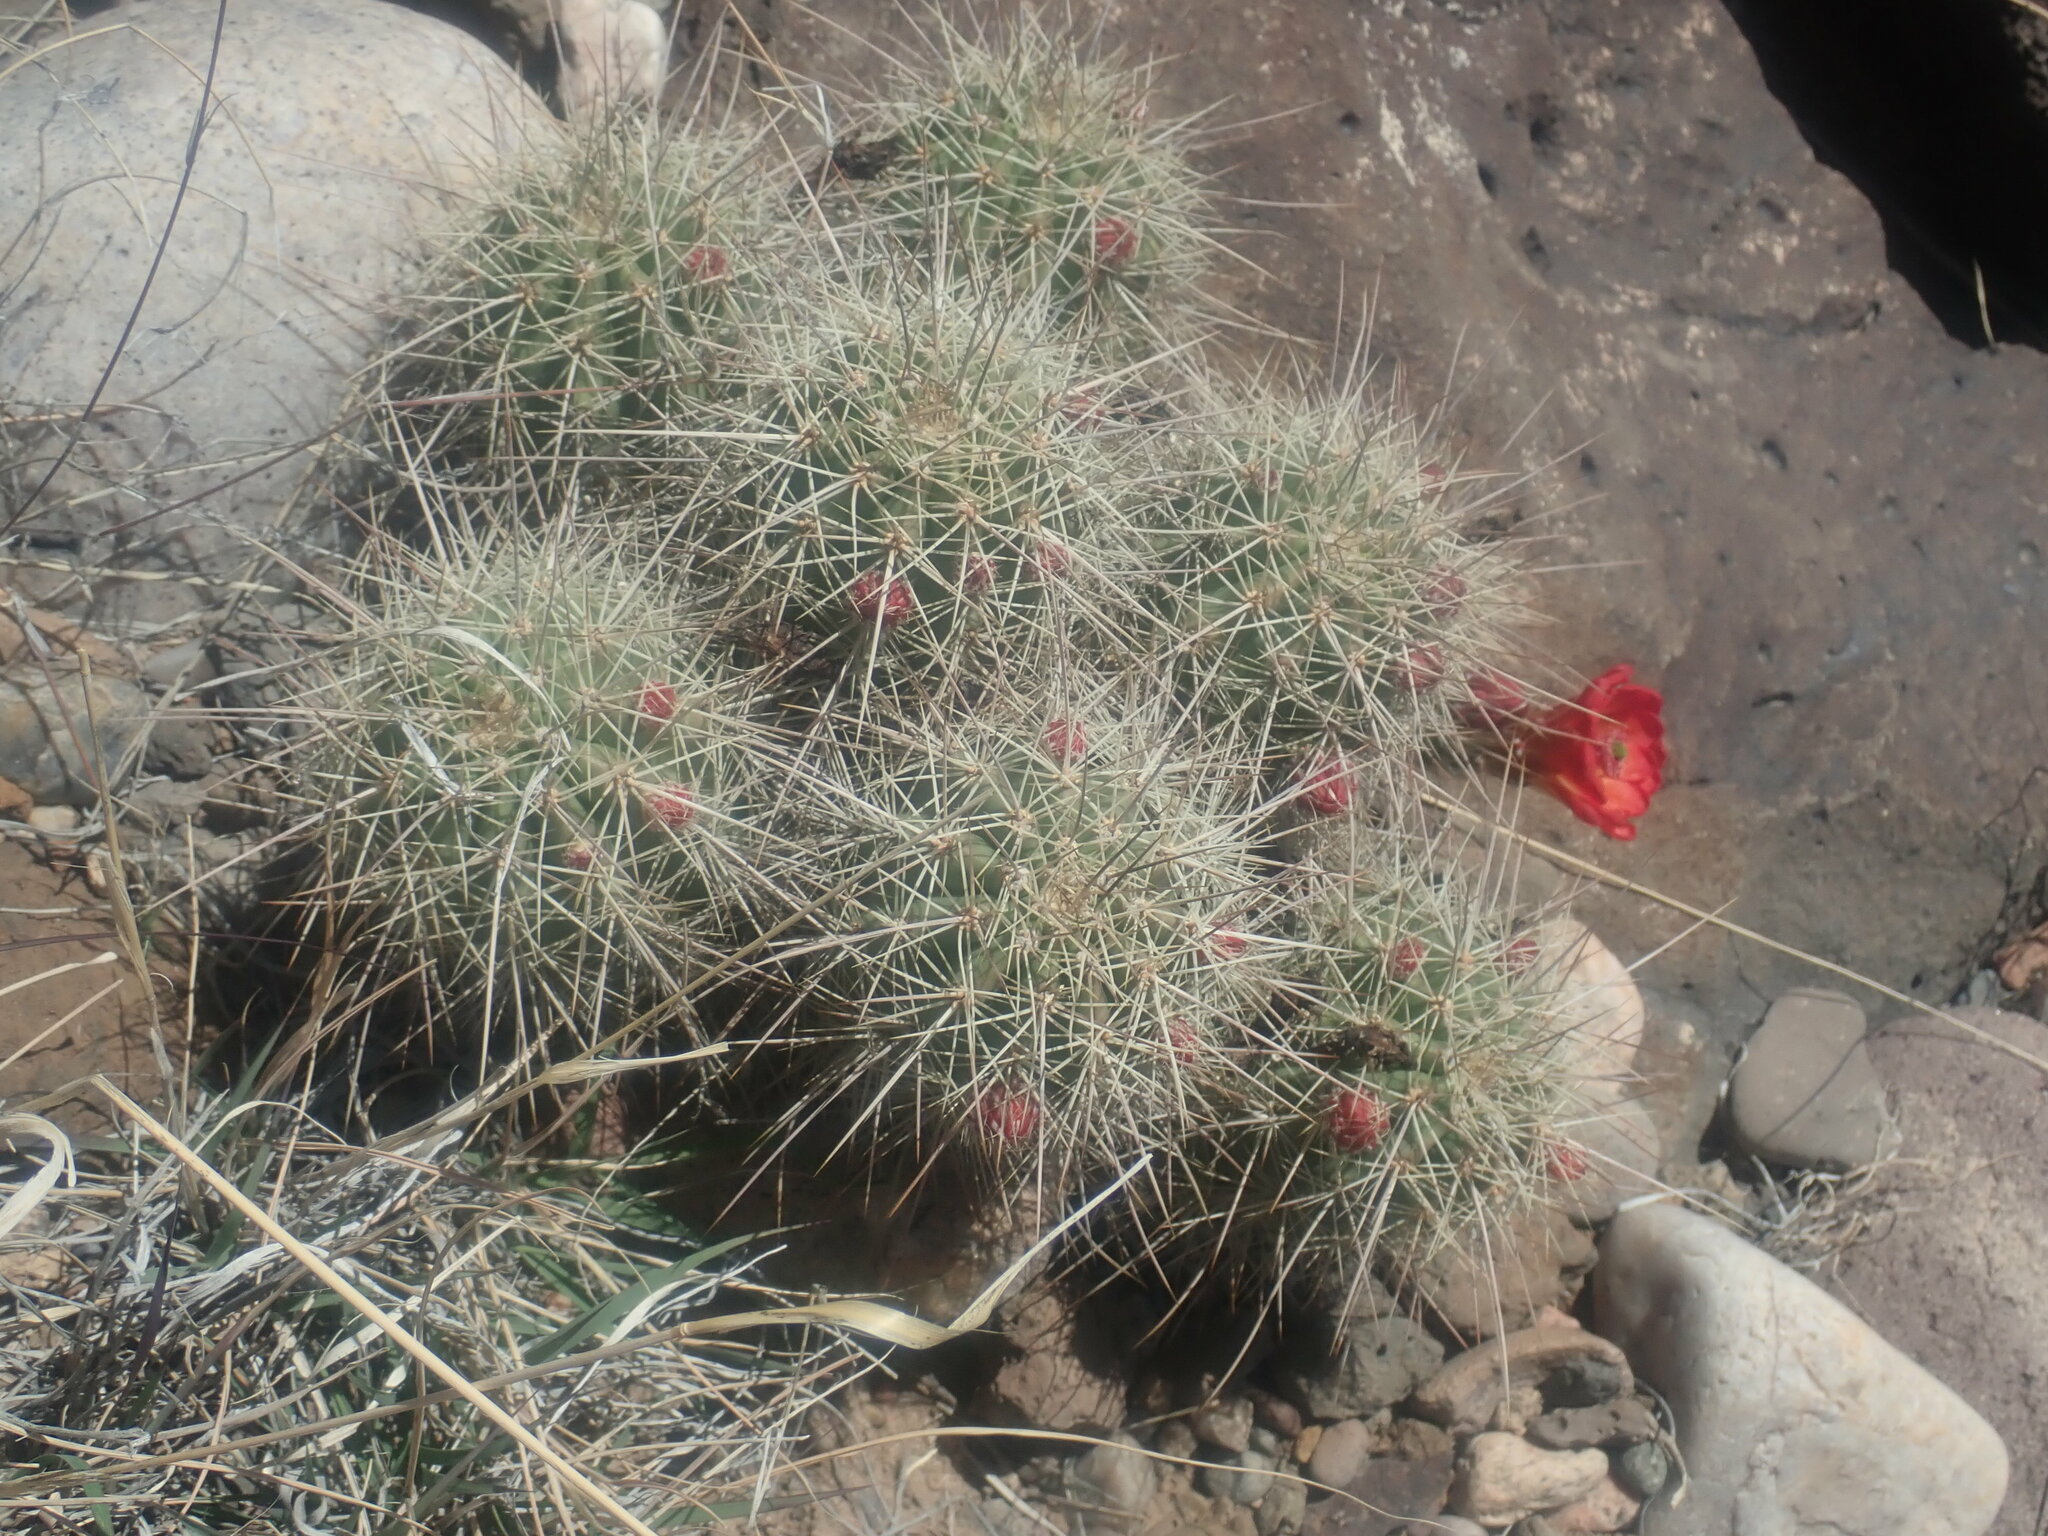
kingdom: Plantae
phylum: Tracheophyta
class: Magnoliopsida
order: Caryophyllales
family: Cactaceae
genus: Echinocereus
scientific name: Echinocereus coccineus
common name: Scarlet hedgehog cactus
